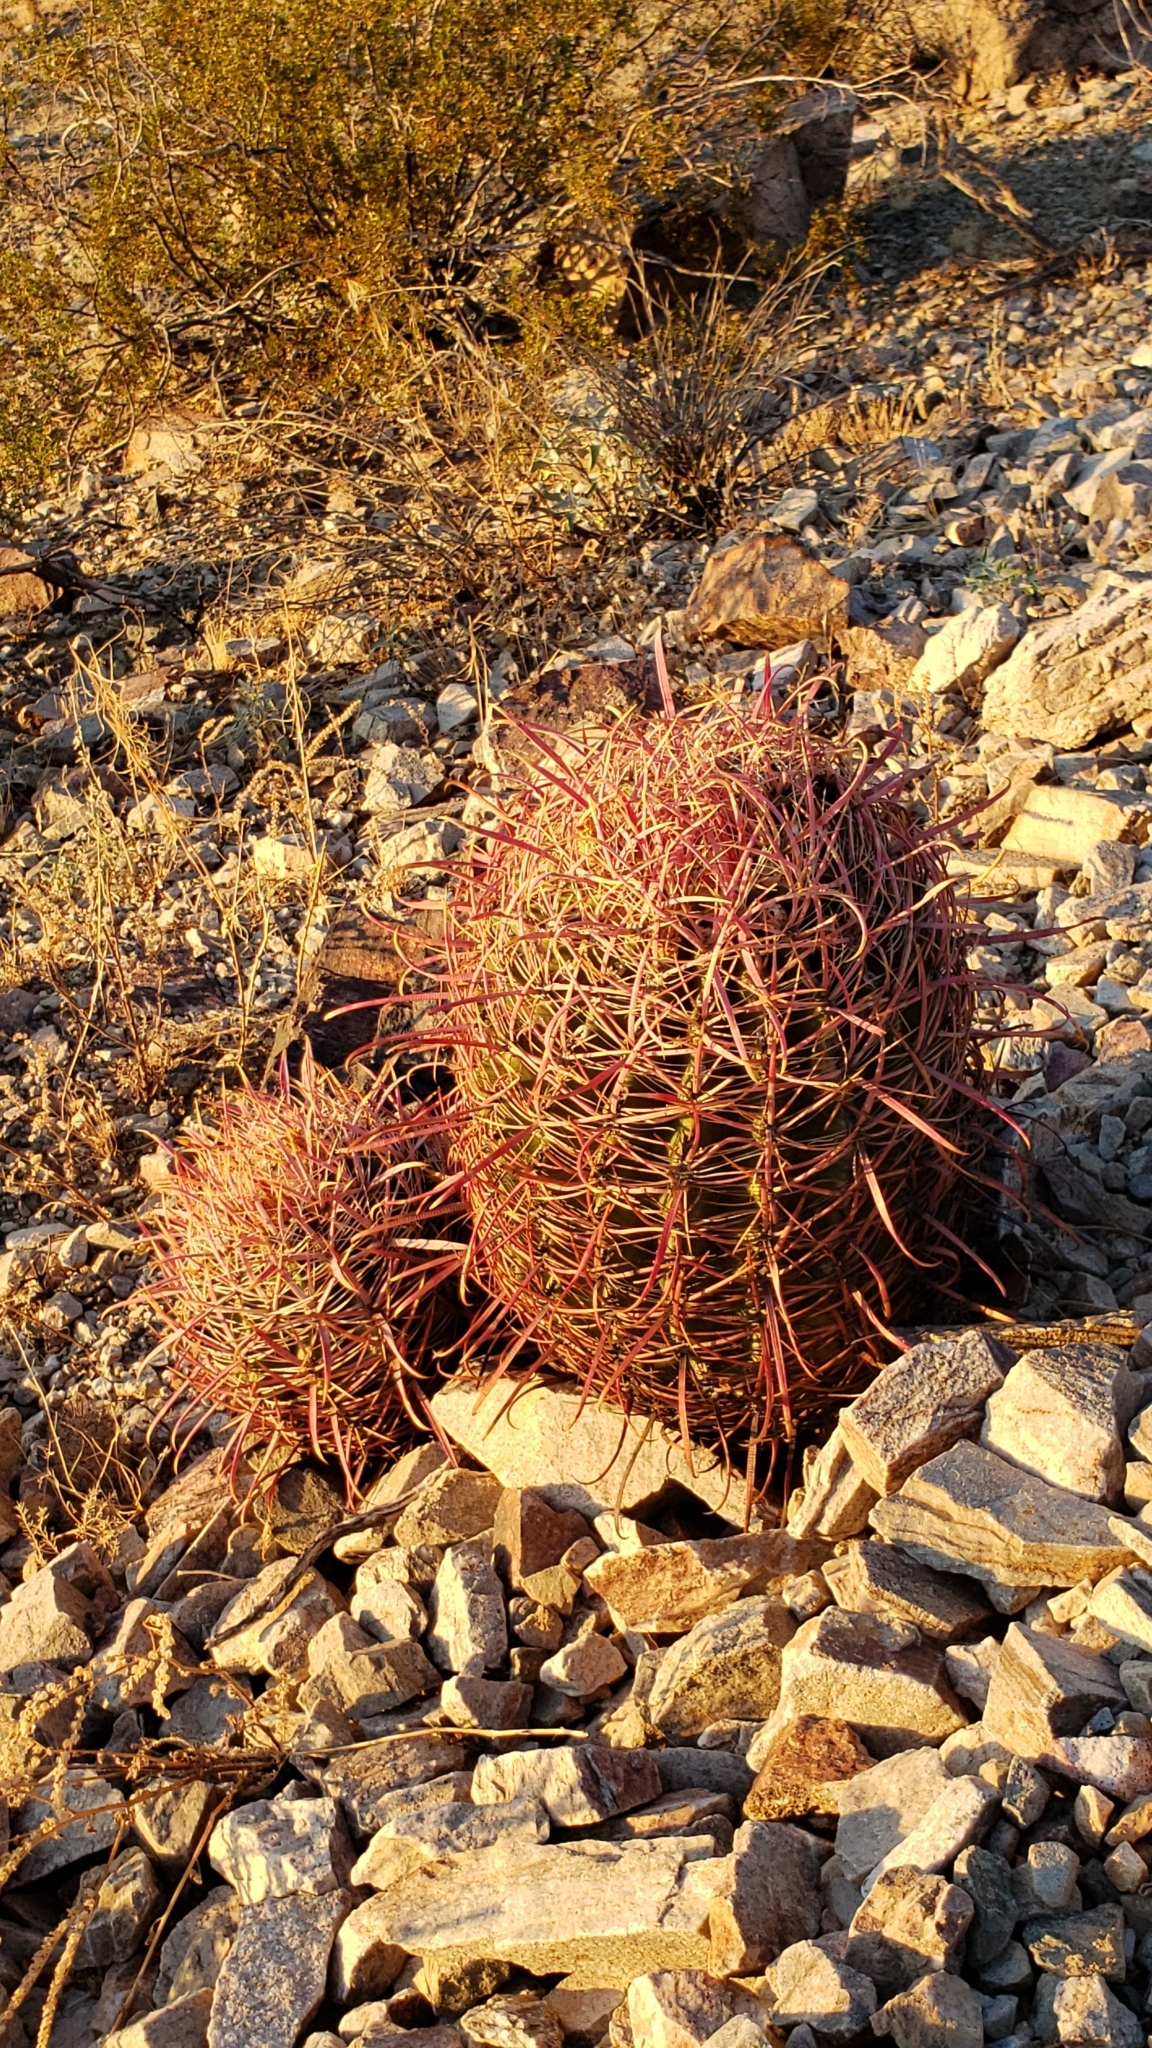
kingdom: Plantae
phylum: Tracheophyta
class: Magnoliopsida
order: Caryophyllales
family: Cactaceae
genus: Ferocactus
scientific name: Ferocactus cylindraceus
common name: California barrel cactus
